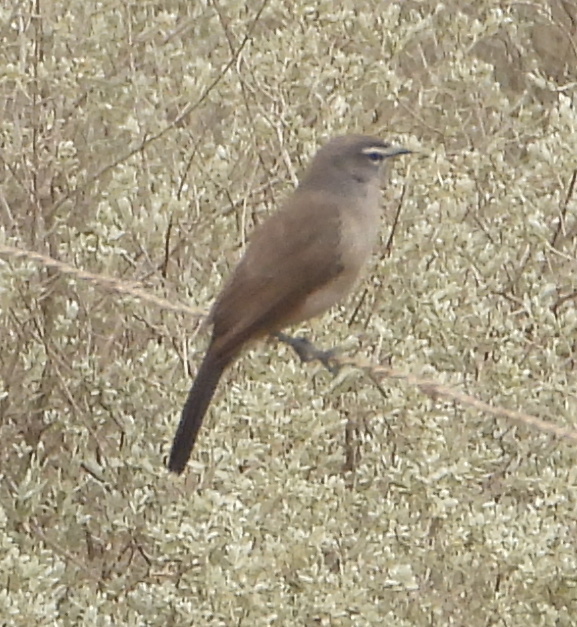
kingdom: Animalia
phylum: Chordata
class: Aves
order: Passeriformes
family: Muscicapidae
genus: Erythropygia
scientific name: Erythropygia coryphoeus
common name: Karoo scrub robin
